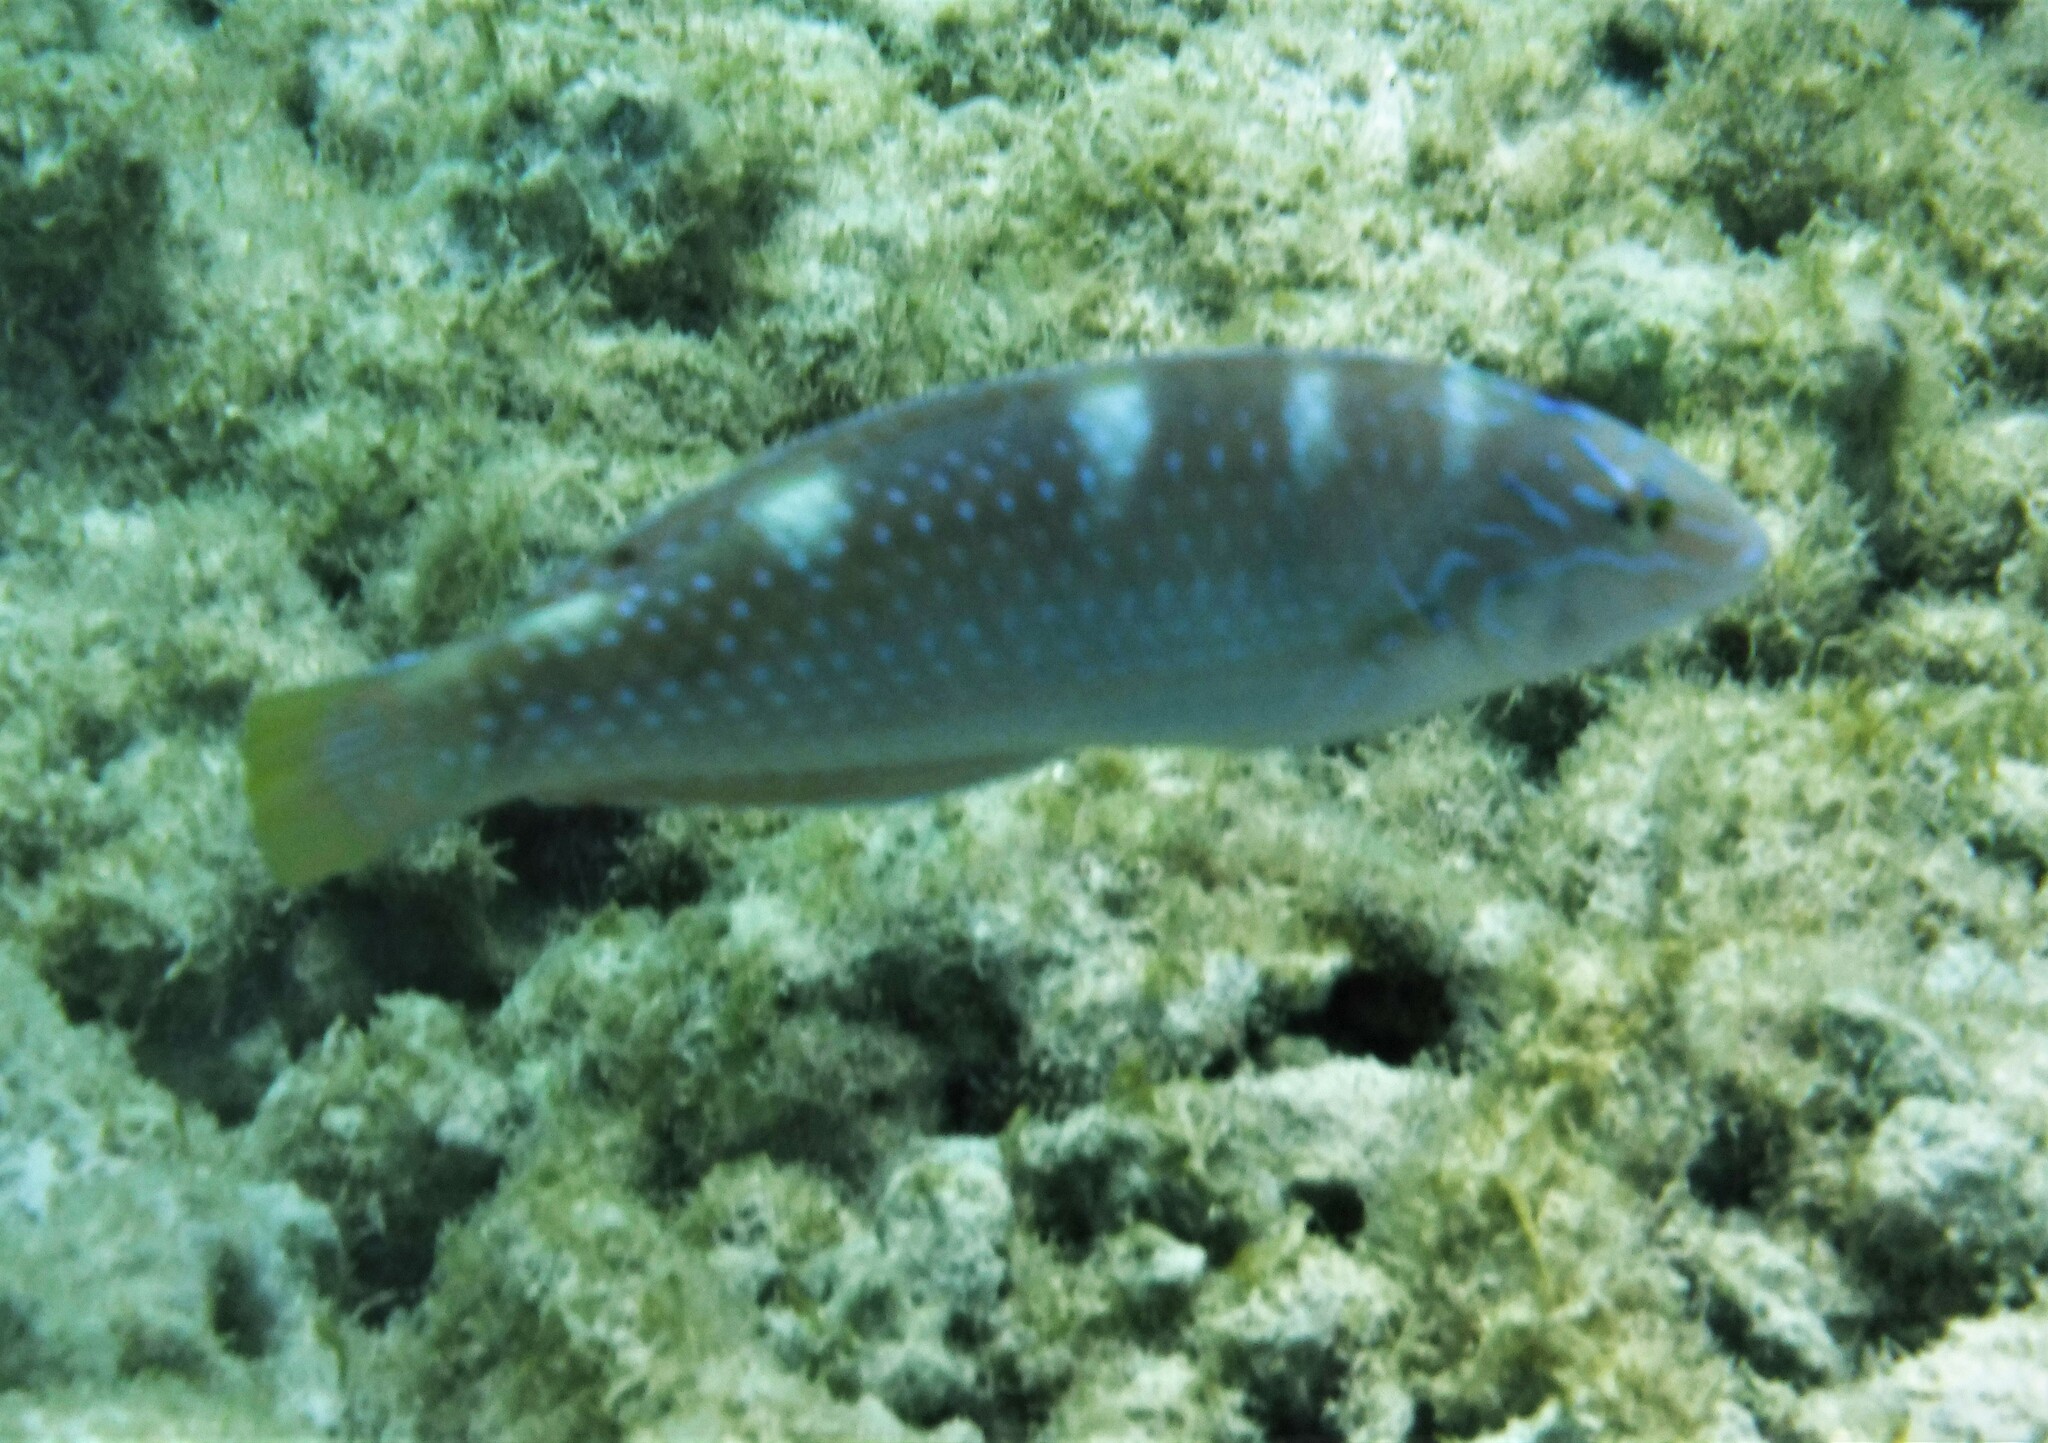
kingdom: Animalia
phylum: Chordata
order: Perciformes
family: Labridae
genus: Halichoeres
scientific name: Halichoeres radiatus
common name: Puddingwife
